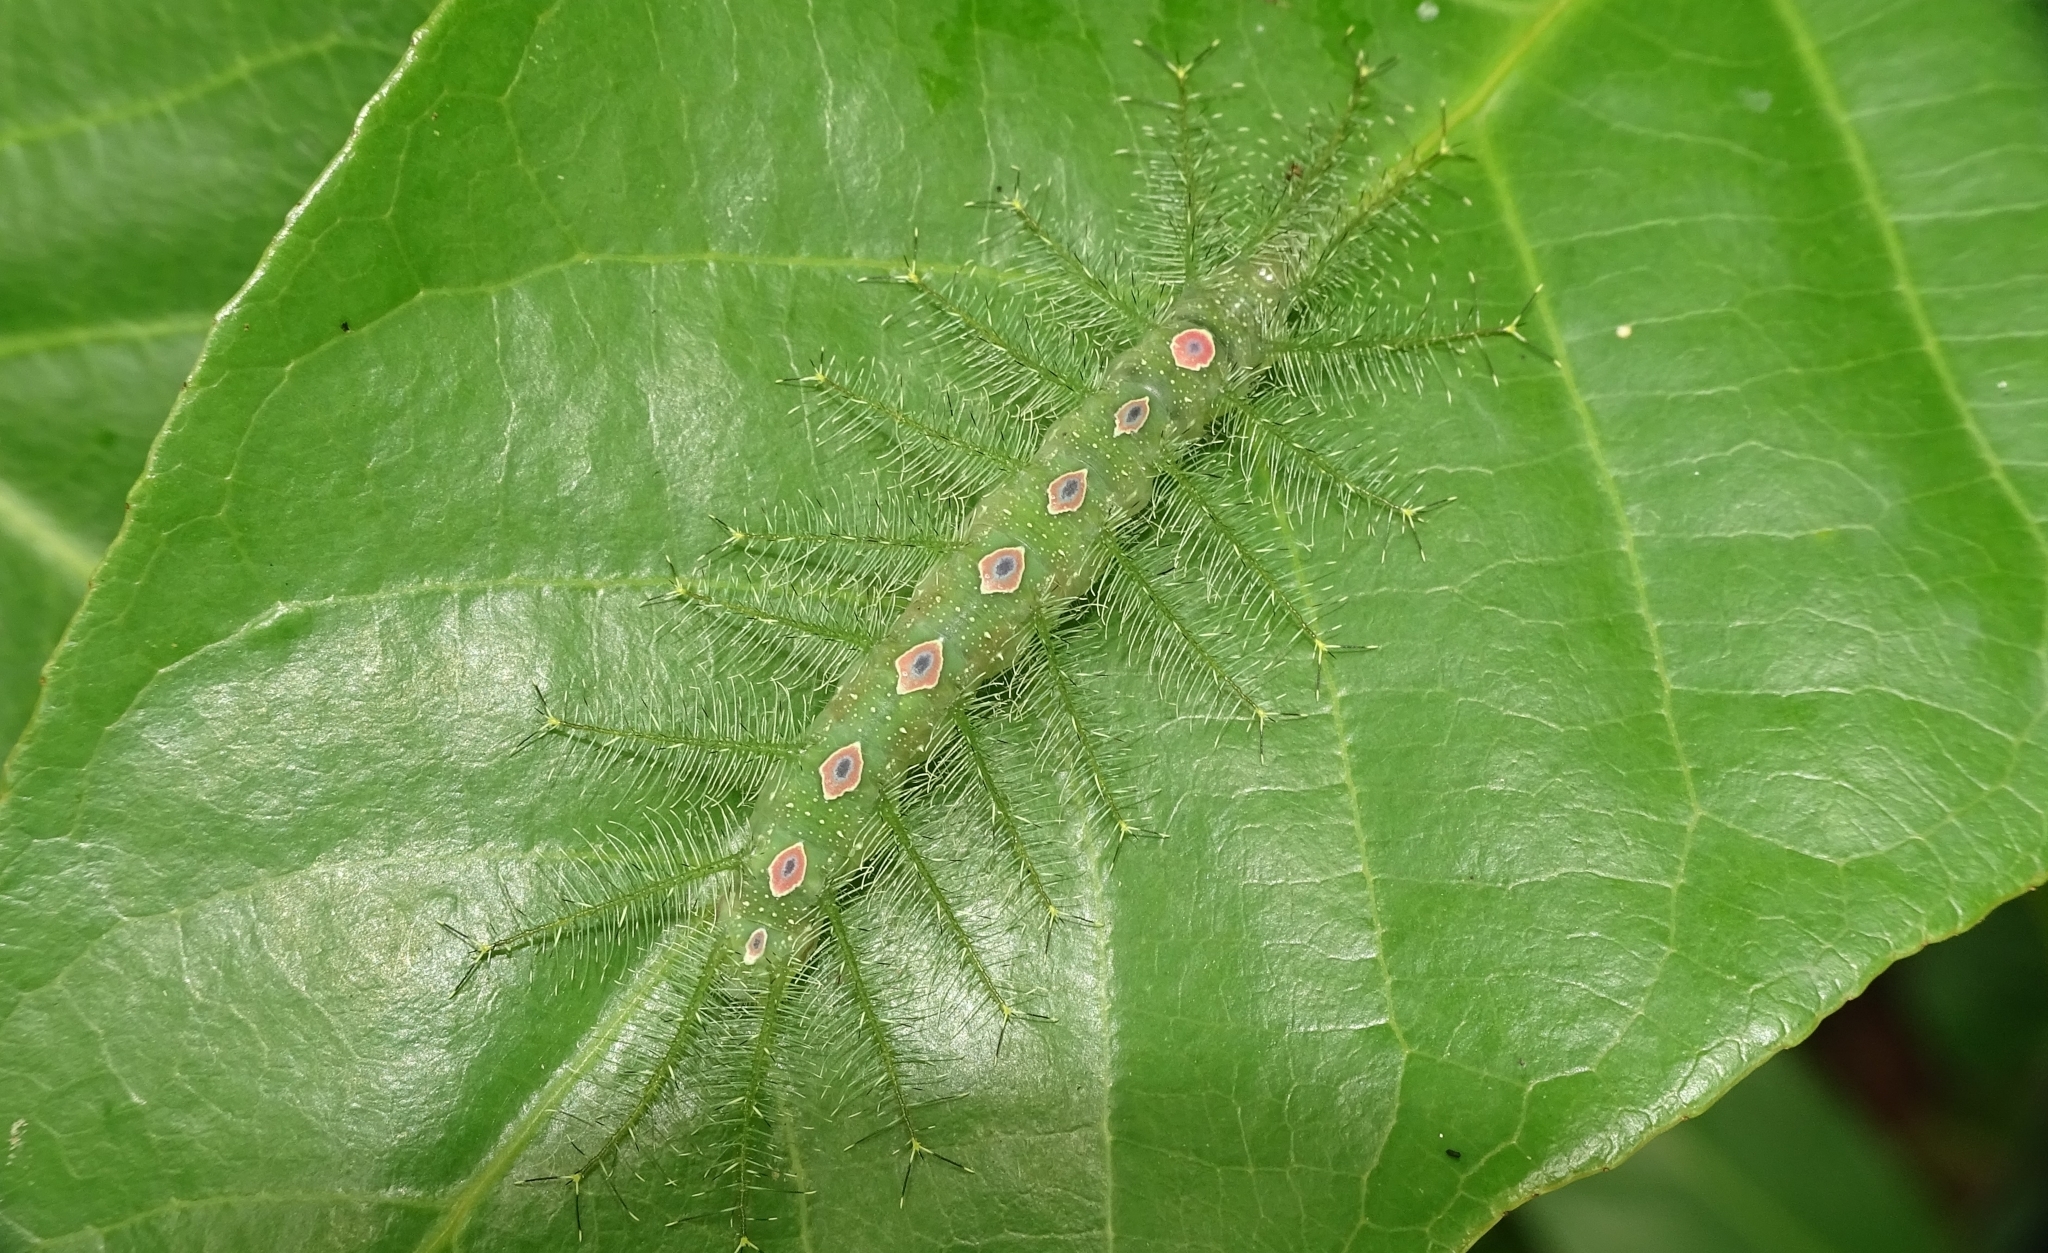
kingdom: Animalia
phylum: Arthropoda
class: Insecta
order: Lepidoptera
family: Nymphalidae
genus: Tanaecia
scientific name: Tanaecia lepidea
